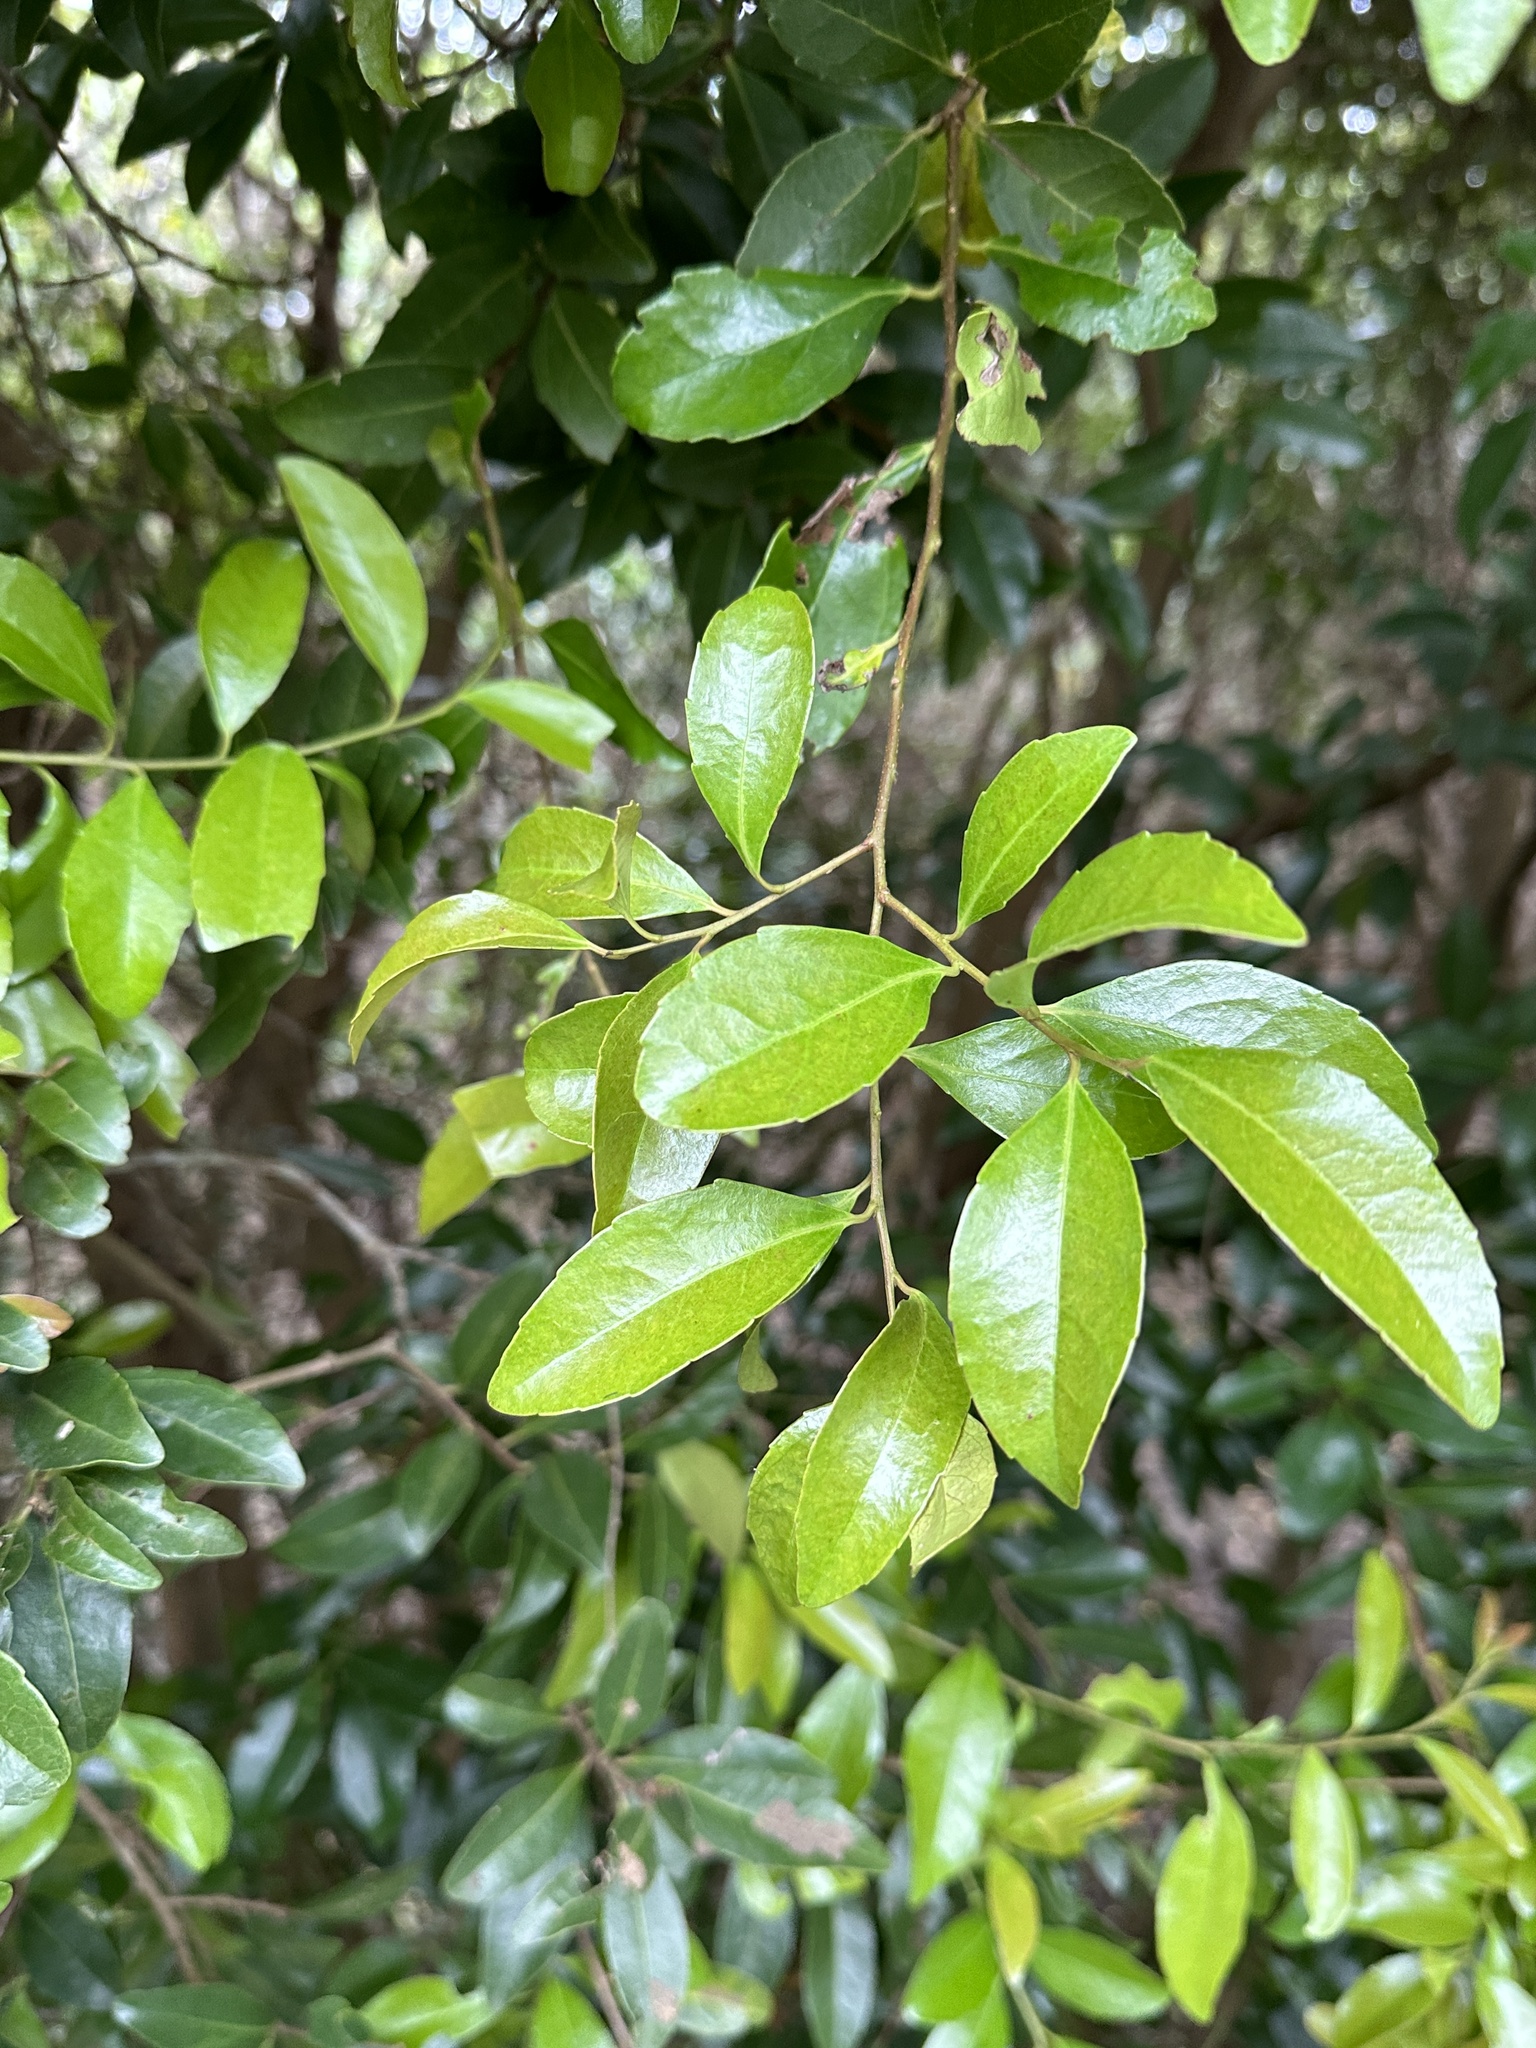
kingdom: Plantae
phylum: Tracheophyta
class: Magnoliopsida
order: Malpighiales
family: Salicaceae
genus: Scolopia
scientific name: Scolopia oldhamii
